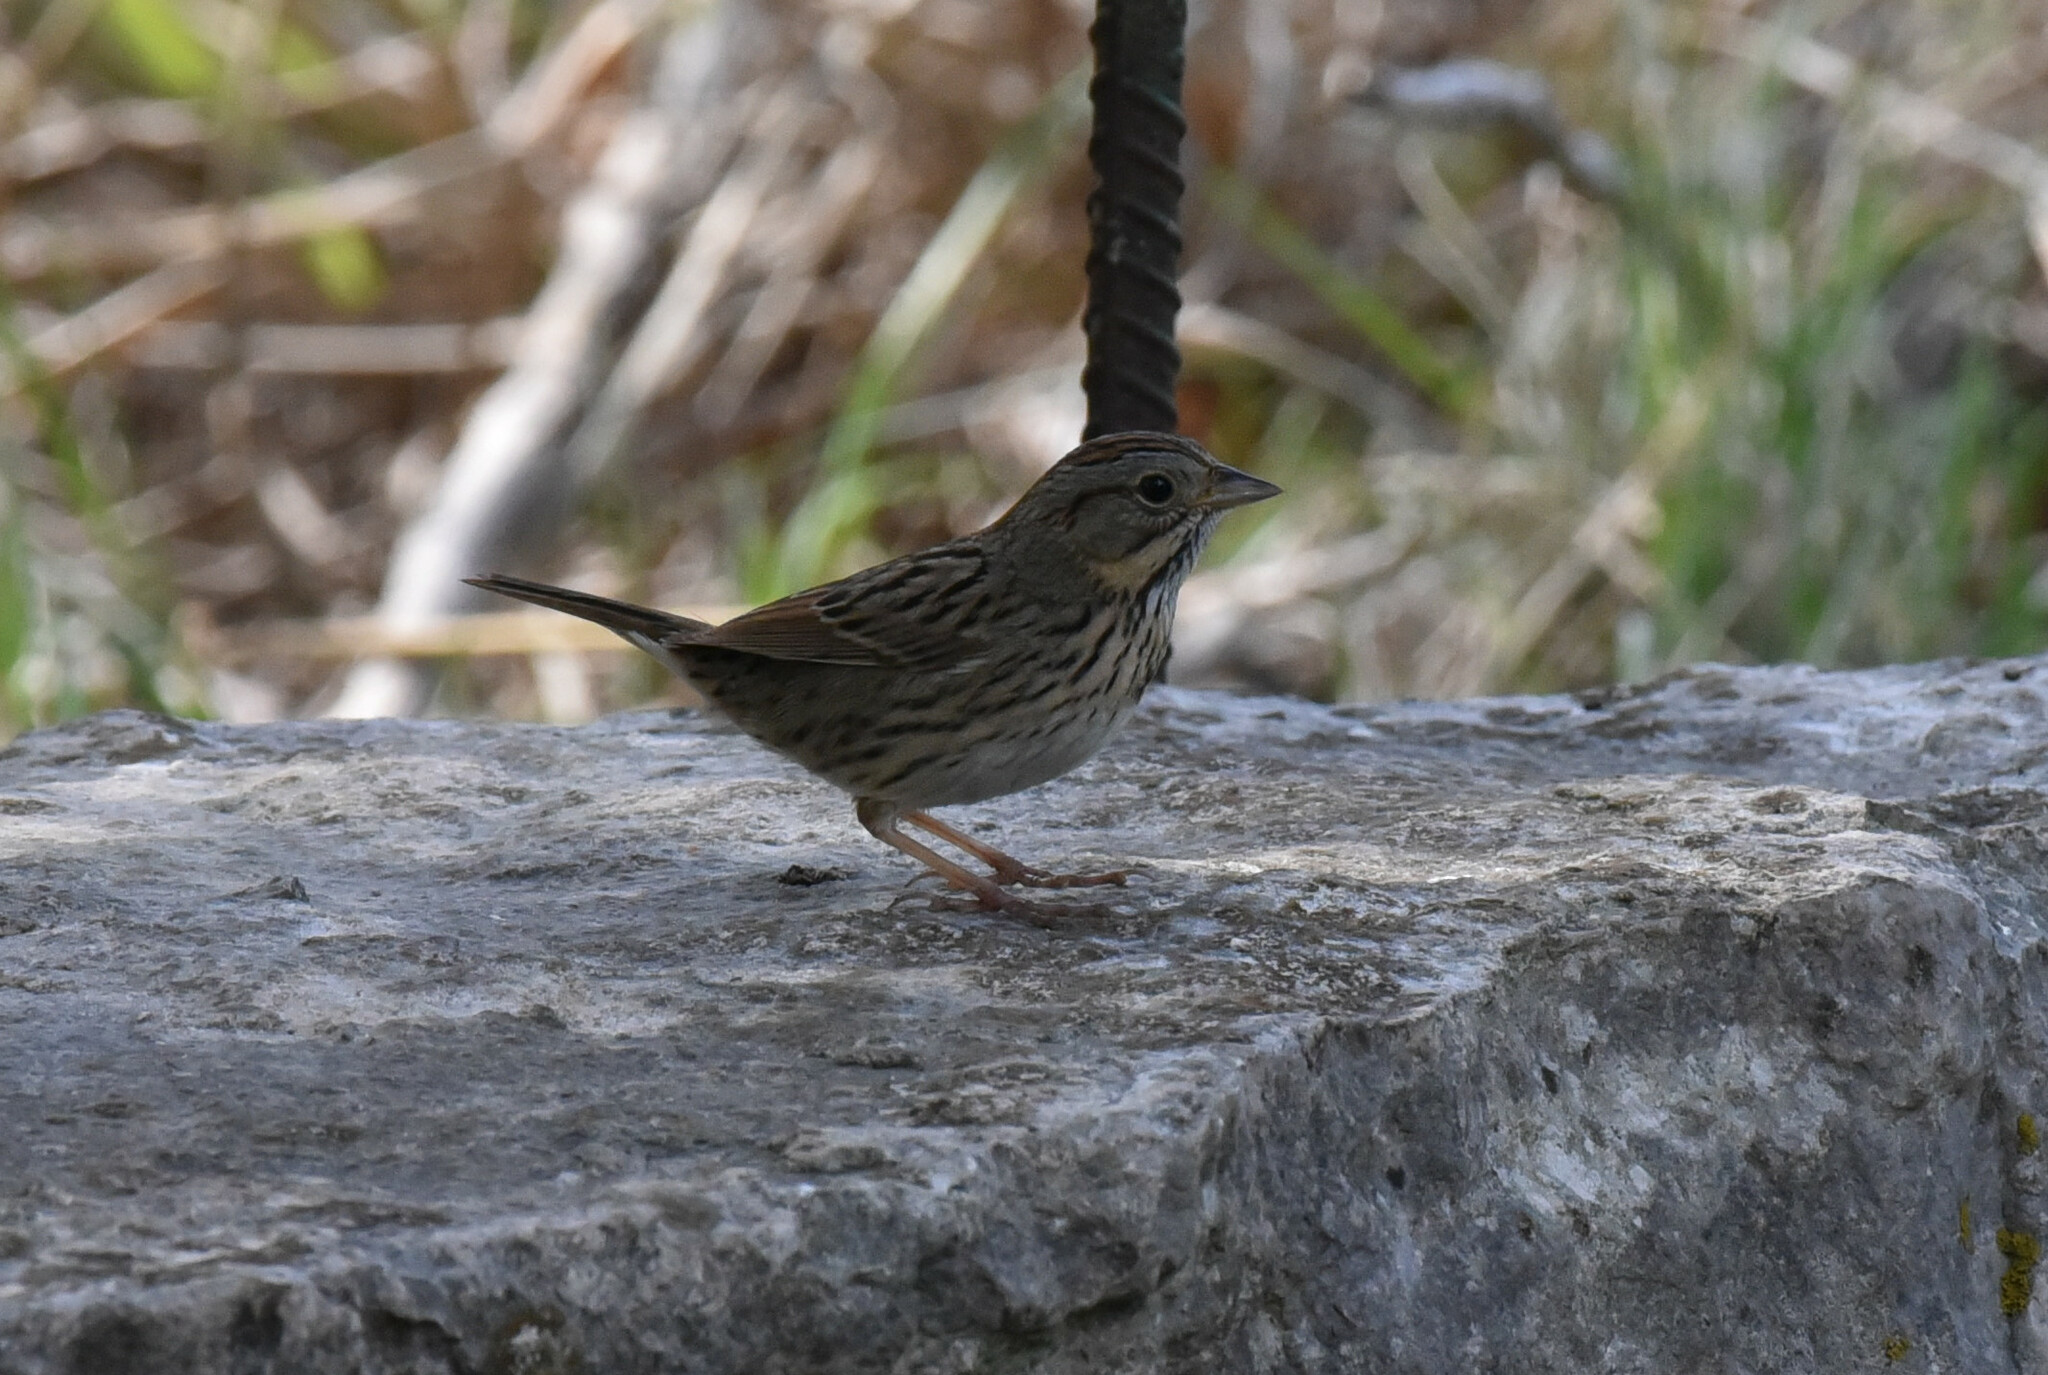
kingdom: Animalia
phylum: Chordata
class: Aves
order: Passeriformes
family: Passerellidae
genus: Melospiza
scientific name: Melospiza lincolnii
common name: Lincoln's sparrow
